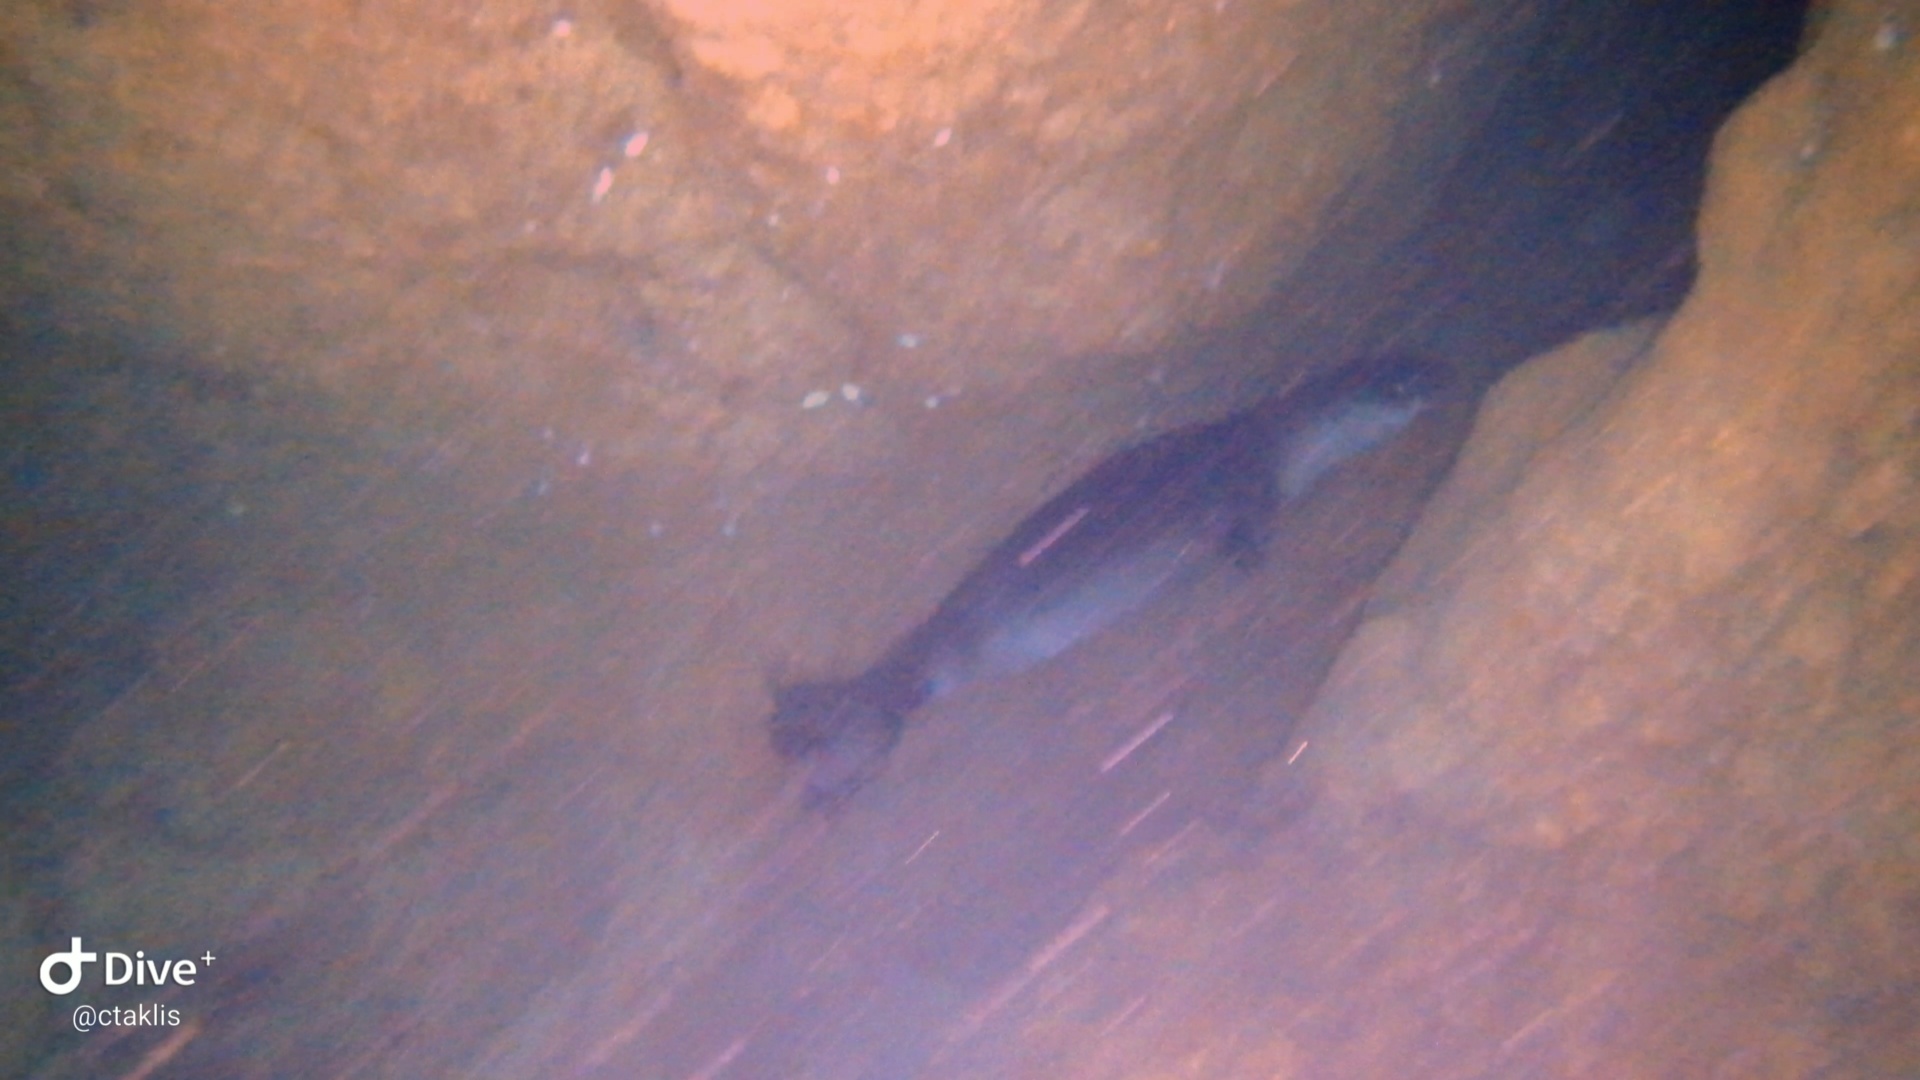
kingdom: Animalia
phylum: Chordata
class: Mammalia
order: Carnivora
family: Phocidae
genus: Monachus
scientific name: Monachus monachus
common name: Mediterranean monk seal
